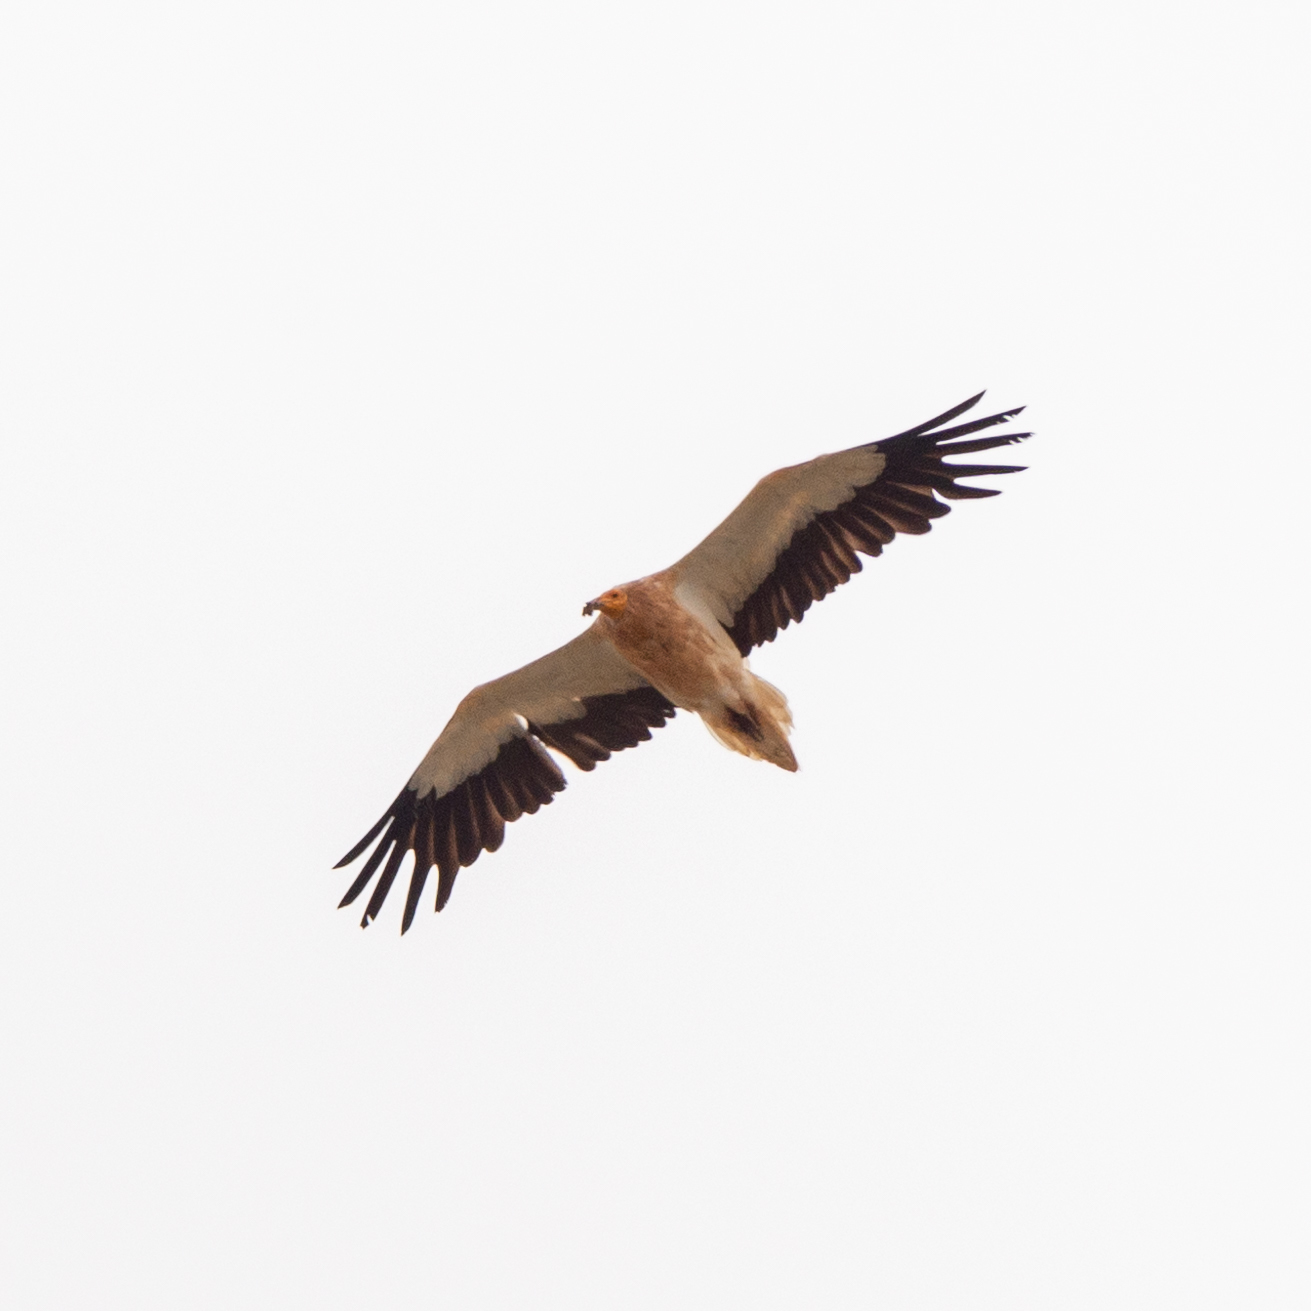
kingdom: Animalia
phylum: Chordata
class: Aves
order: Accipitriformes
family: Accipitridae
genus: Neophron
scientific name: Neophron percnopterus
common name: Egyptian vulture
